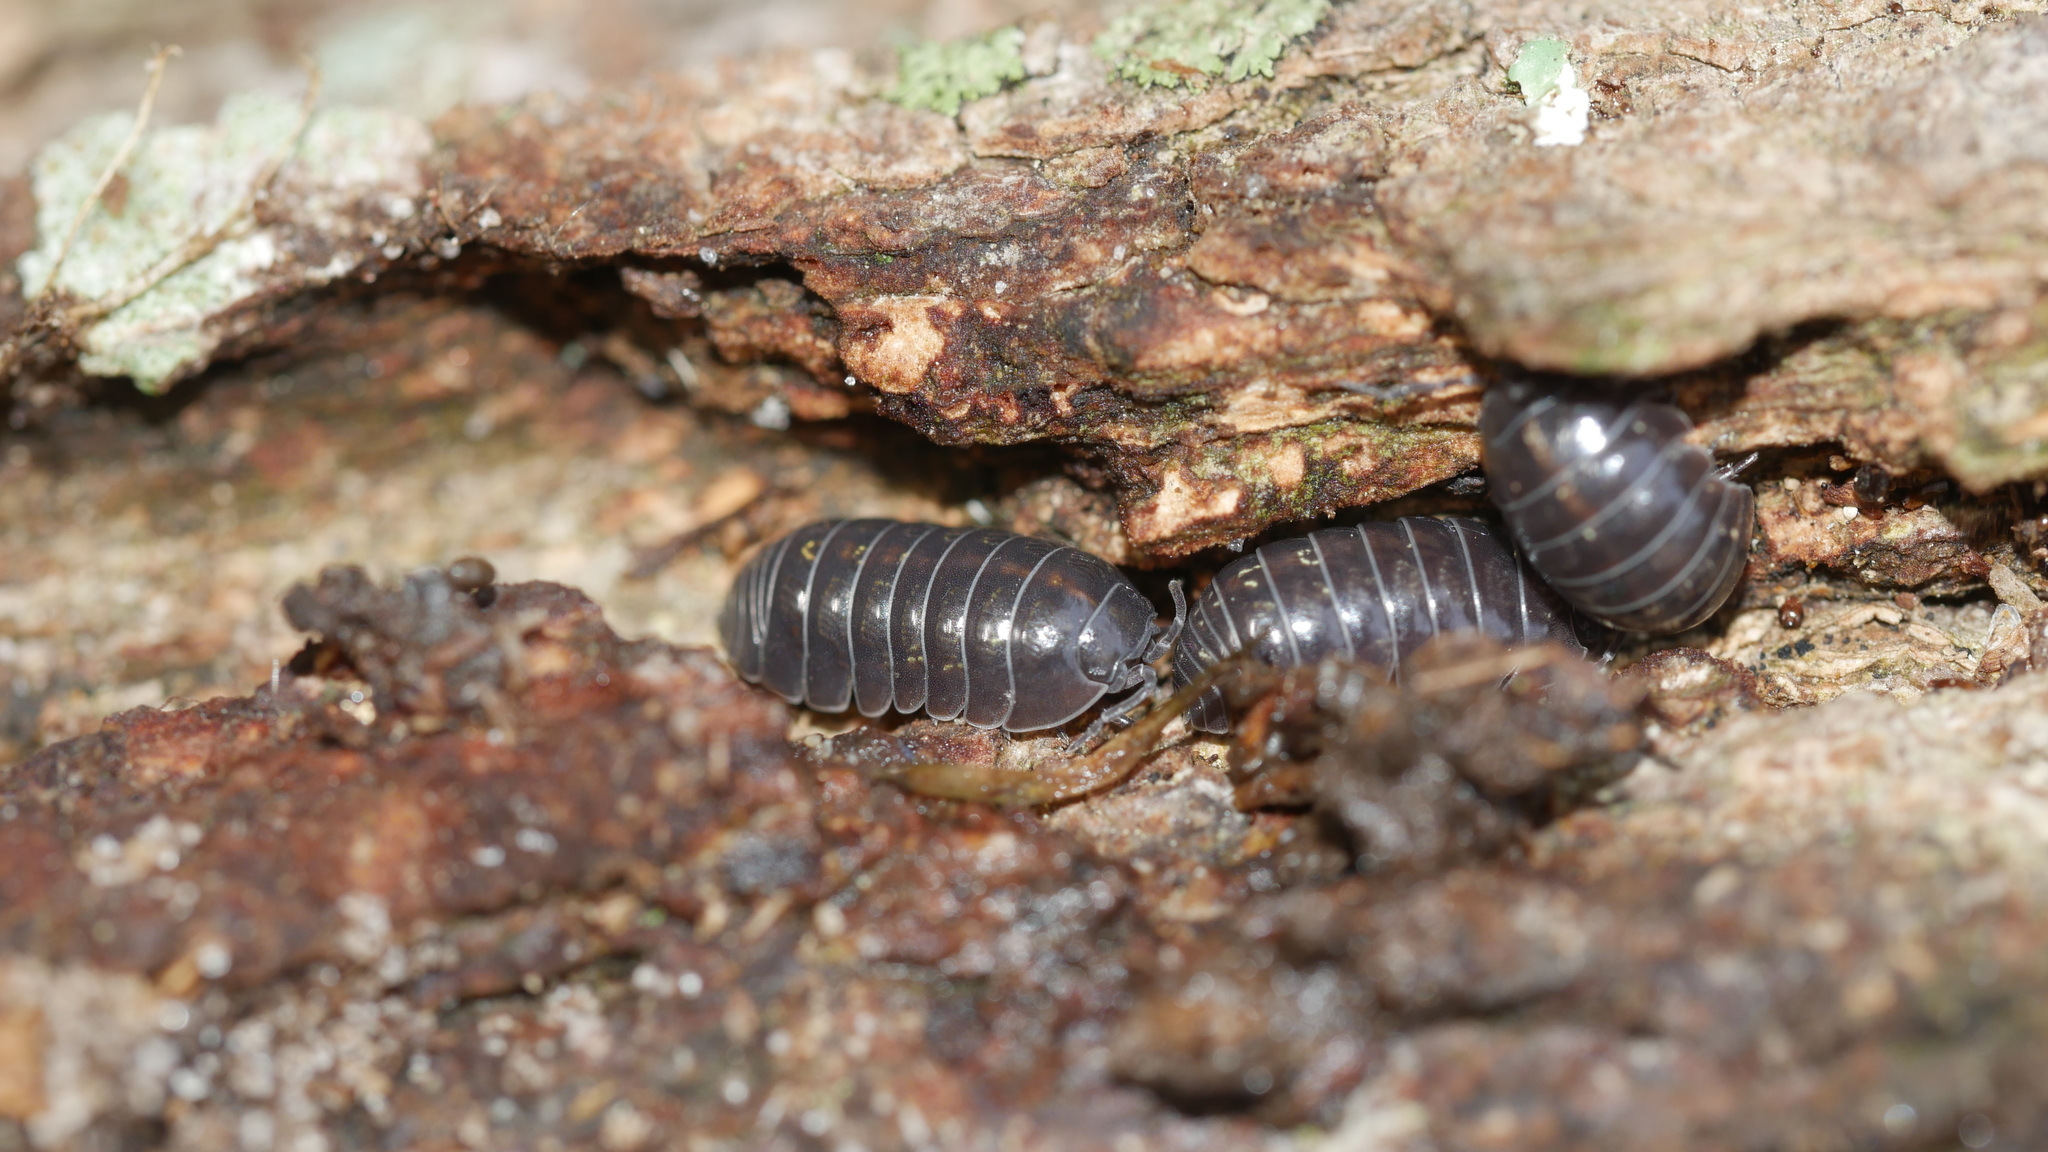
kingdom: Animalia
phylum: Arthropoda
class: Malacostraca
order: Isopoda
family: Armadillidiidae
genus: Armadillidium
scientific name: Armadillidium vulgare
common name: Common pill woodlouse
